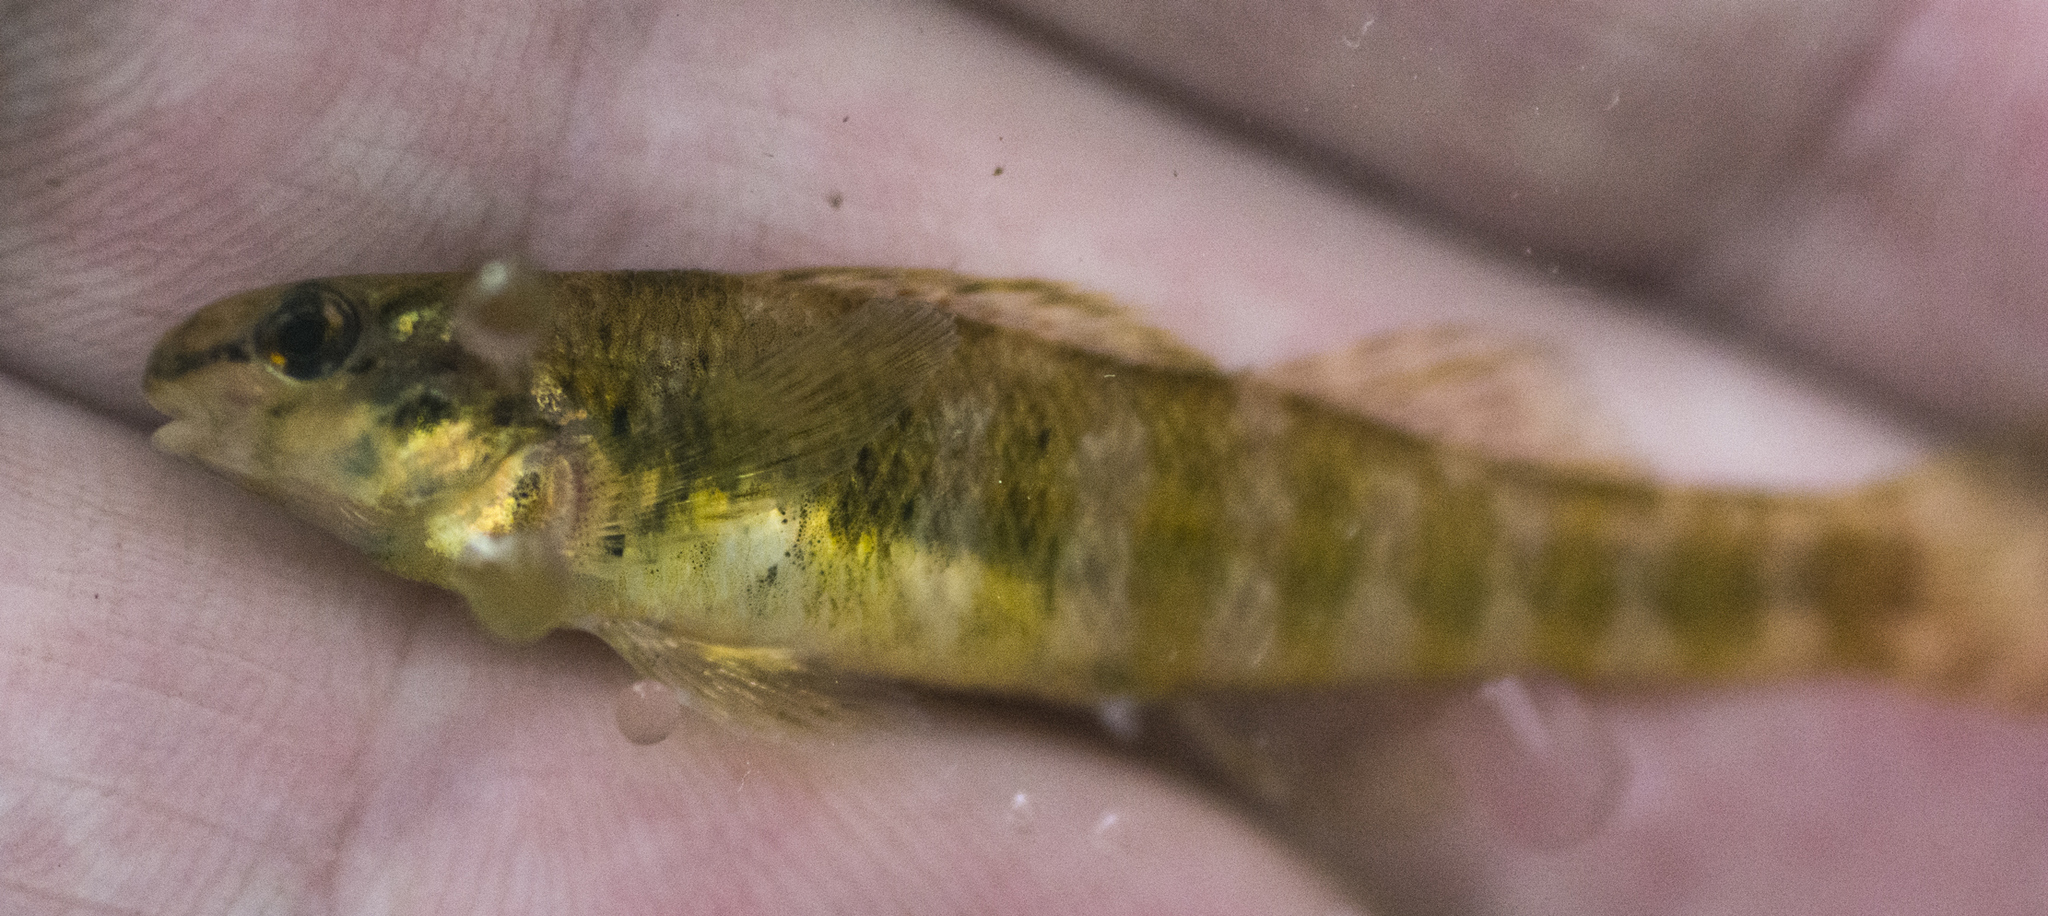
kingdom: Animalia
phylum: Chordata
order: Perciformes
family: Percidae
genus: Etheostoma
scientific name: Etheostoma zonale
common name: Banded darter
